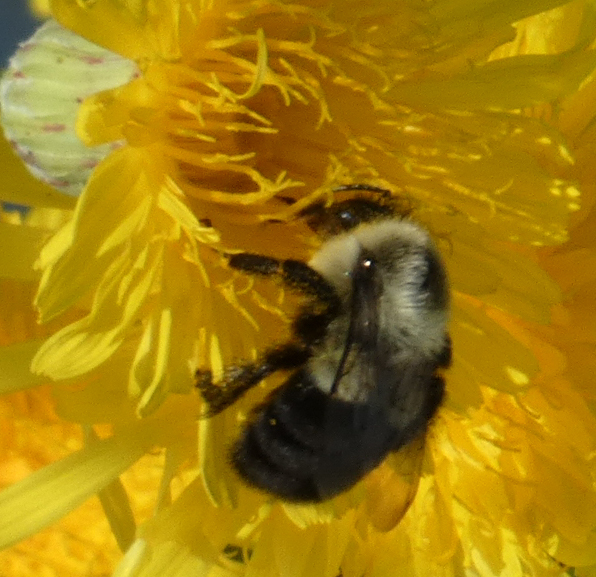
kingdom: Animalia
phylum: Arthropoda
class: Insecta
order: Hymenoptera
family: Apidae
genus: Bombus
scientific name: Bombus impatiens
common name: Common eastern bumble bee
